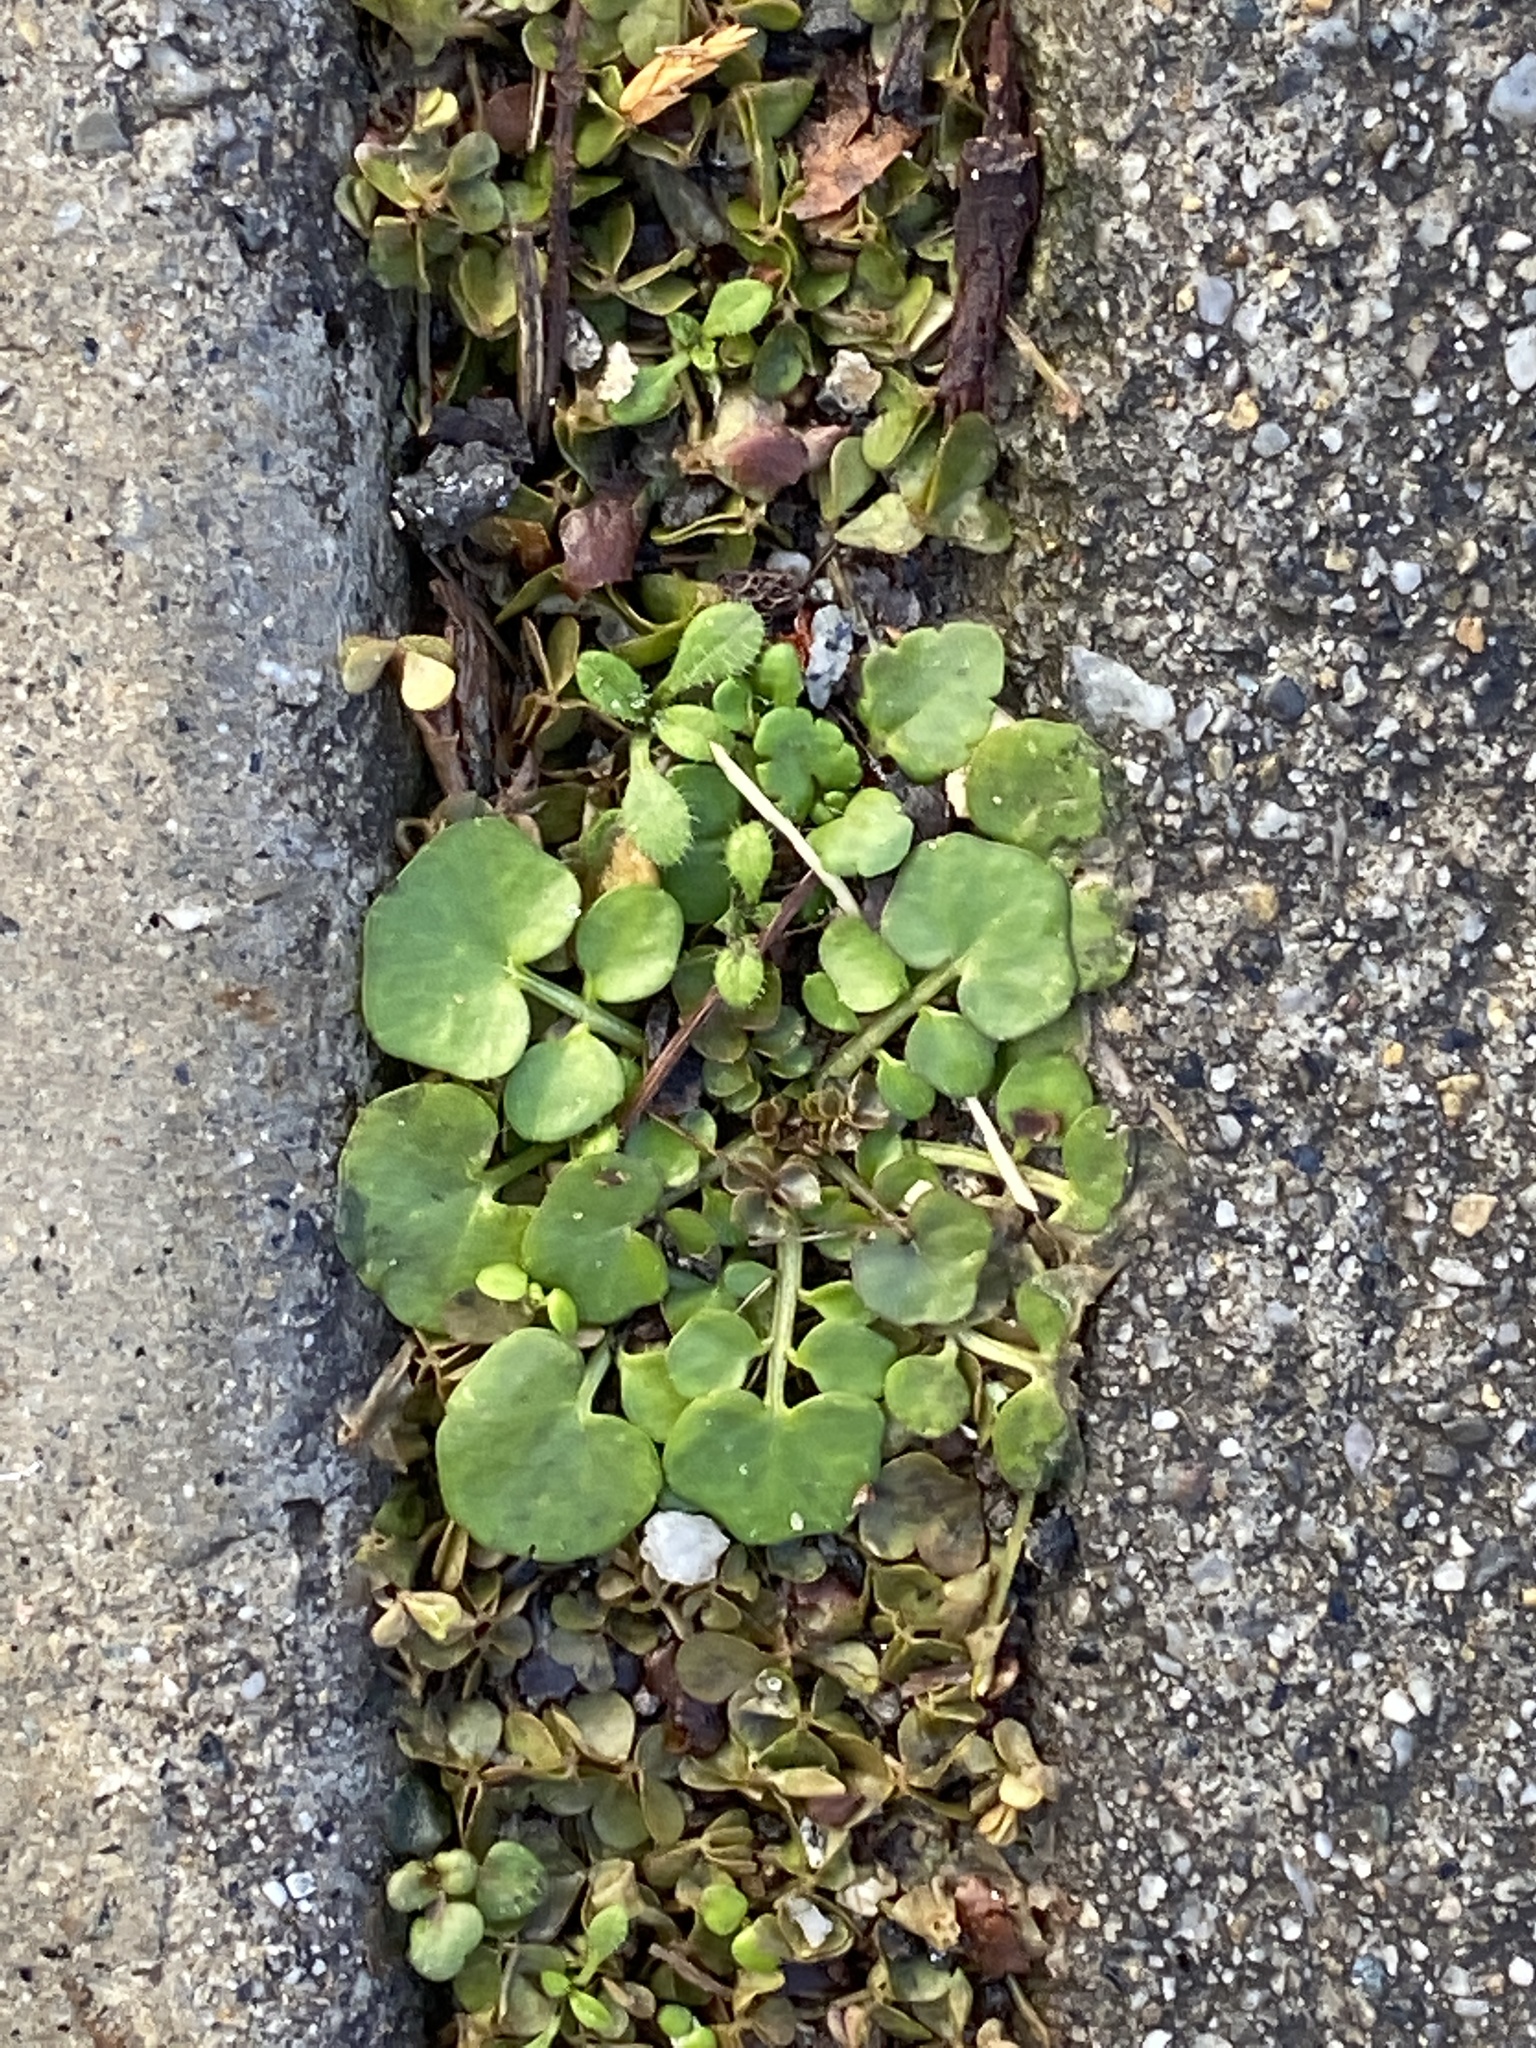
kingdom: Plantae
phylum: Tracheophyta
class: Magnoliopsida
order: Brassicales
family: Brassicaceae
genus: Cardamine
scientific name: Cardamine hirsuta
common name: Hairy bittercress
